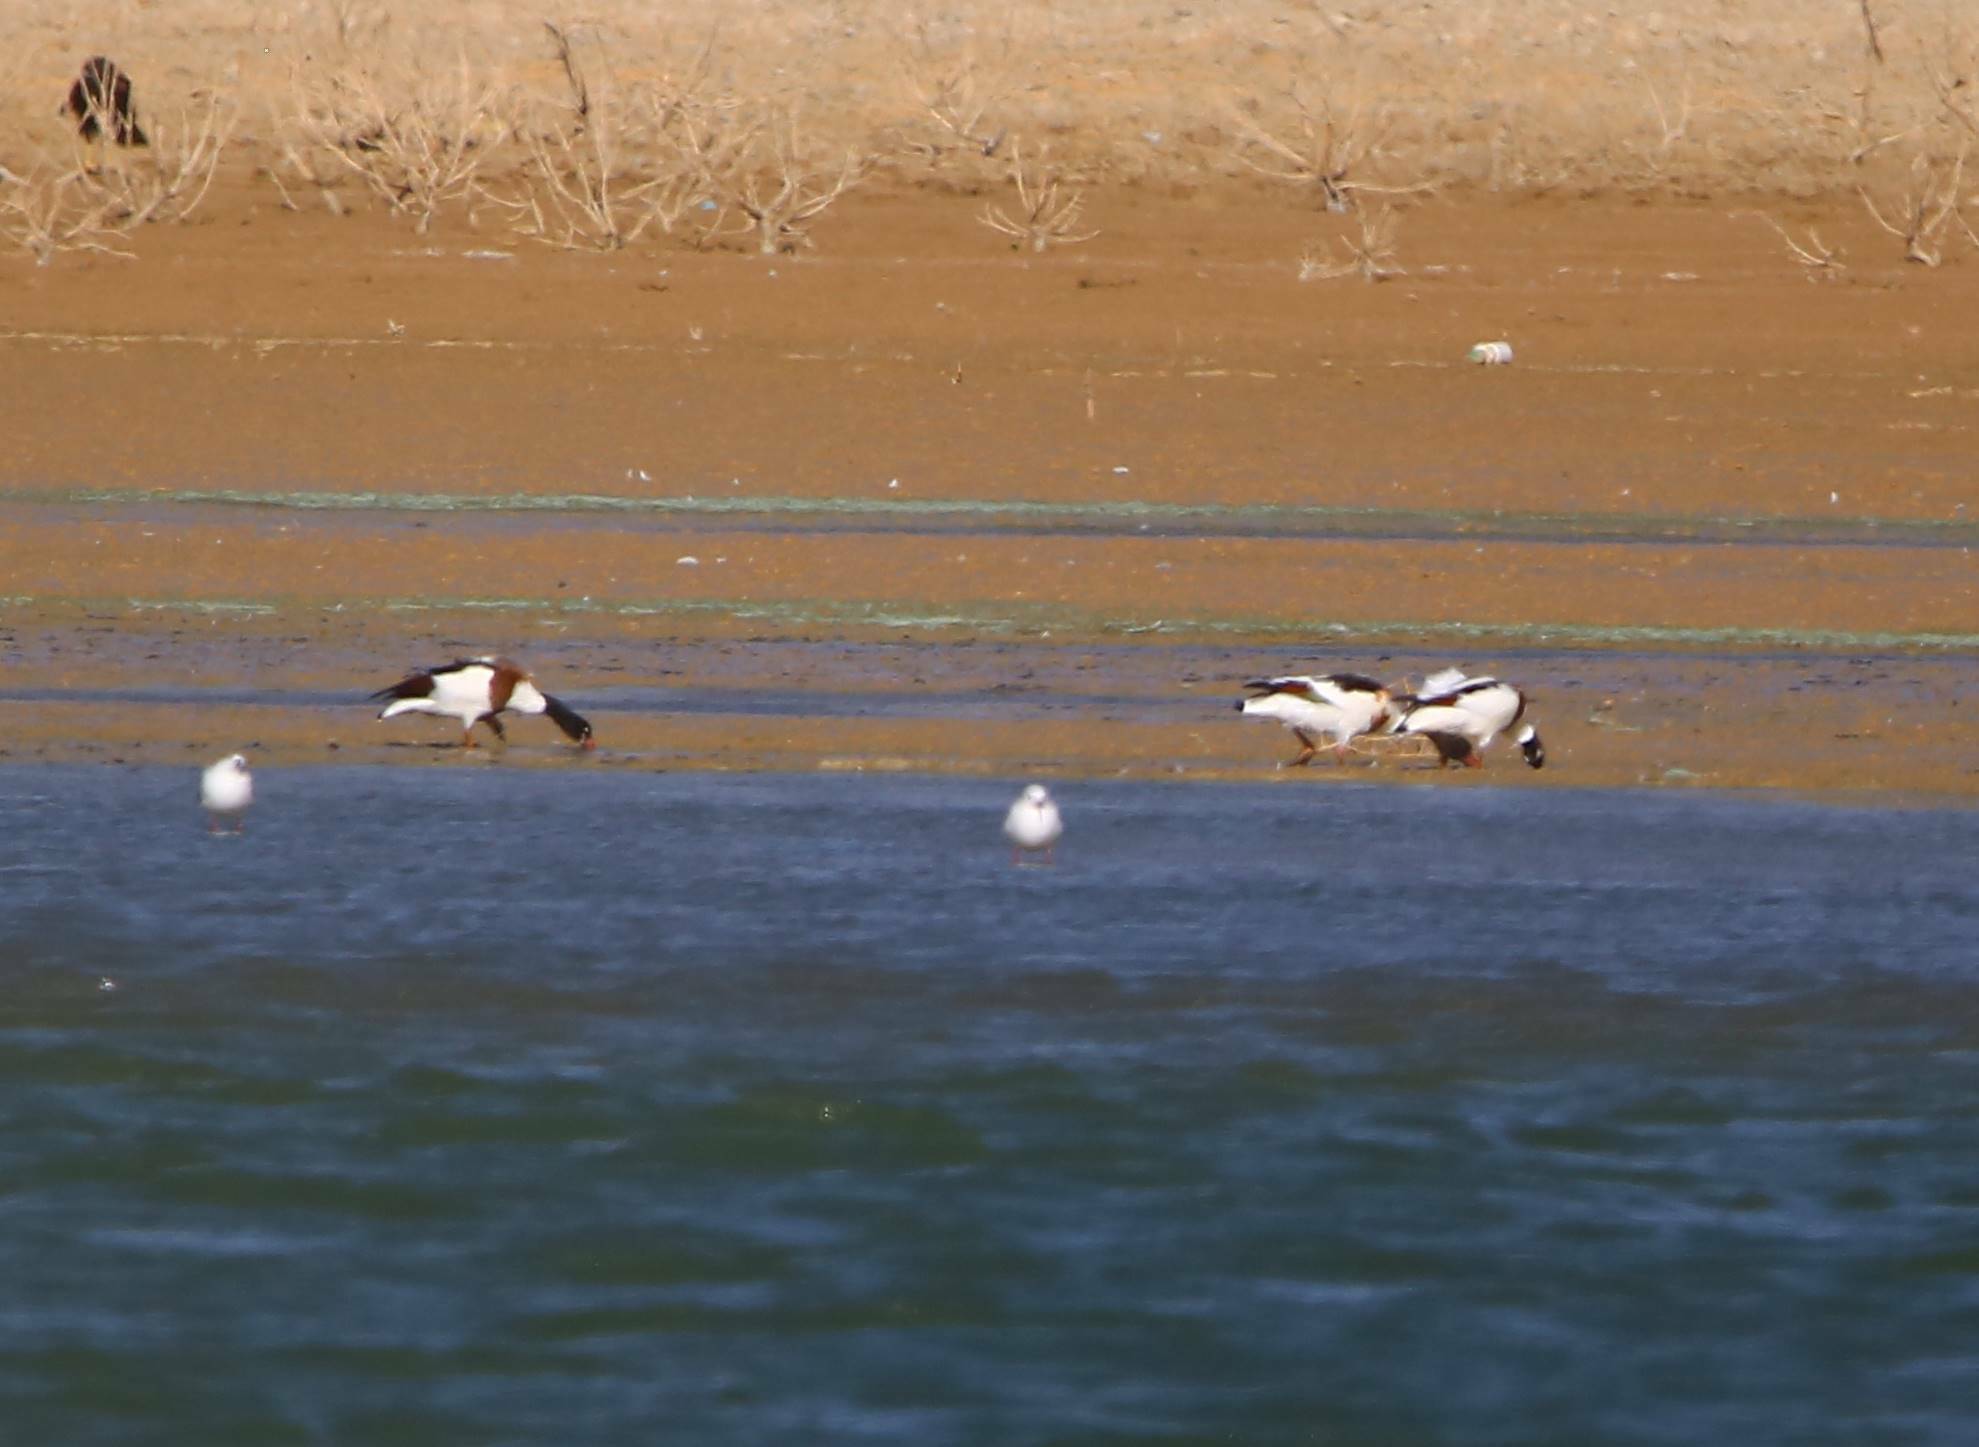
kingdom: Animalia
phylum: Chordata
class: Aves
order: Anseriformes
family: Anatidae
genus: Tadorna
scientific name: Tadorna tadorna
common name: Common shelduck
